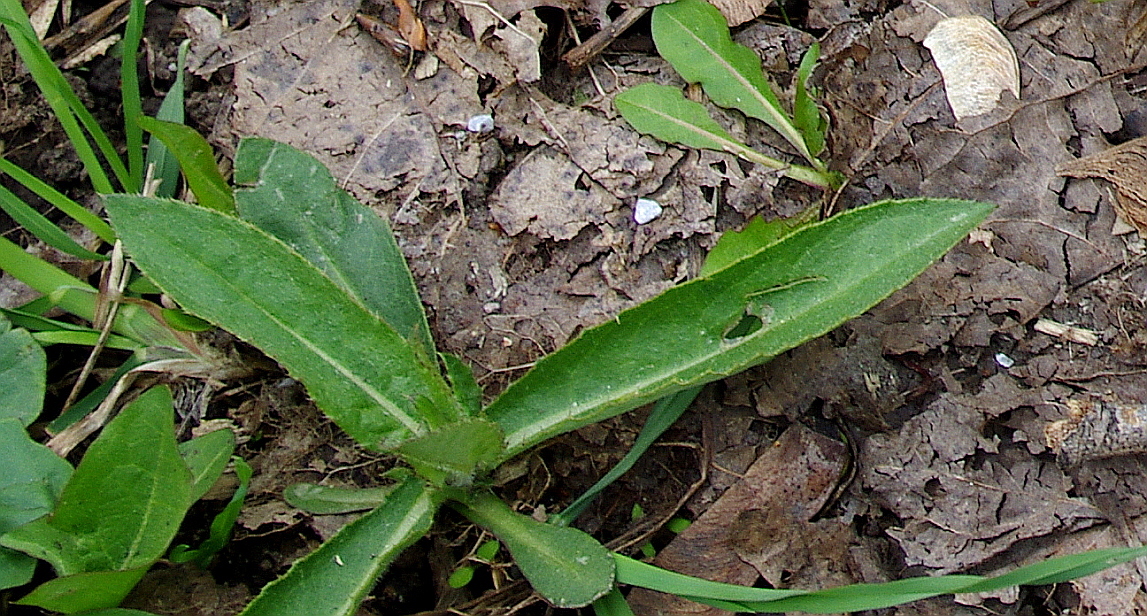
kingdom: Plantae
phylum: Tracheophyta
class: Magnoliopsida
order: Asterales
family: Asteraceae
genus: Cirsium
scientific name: Cirsium arvense
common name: Creeping thistle
